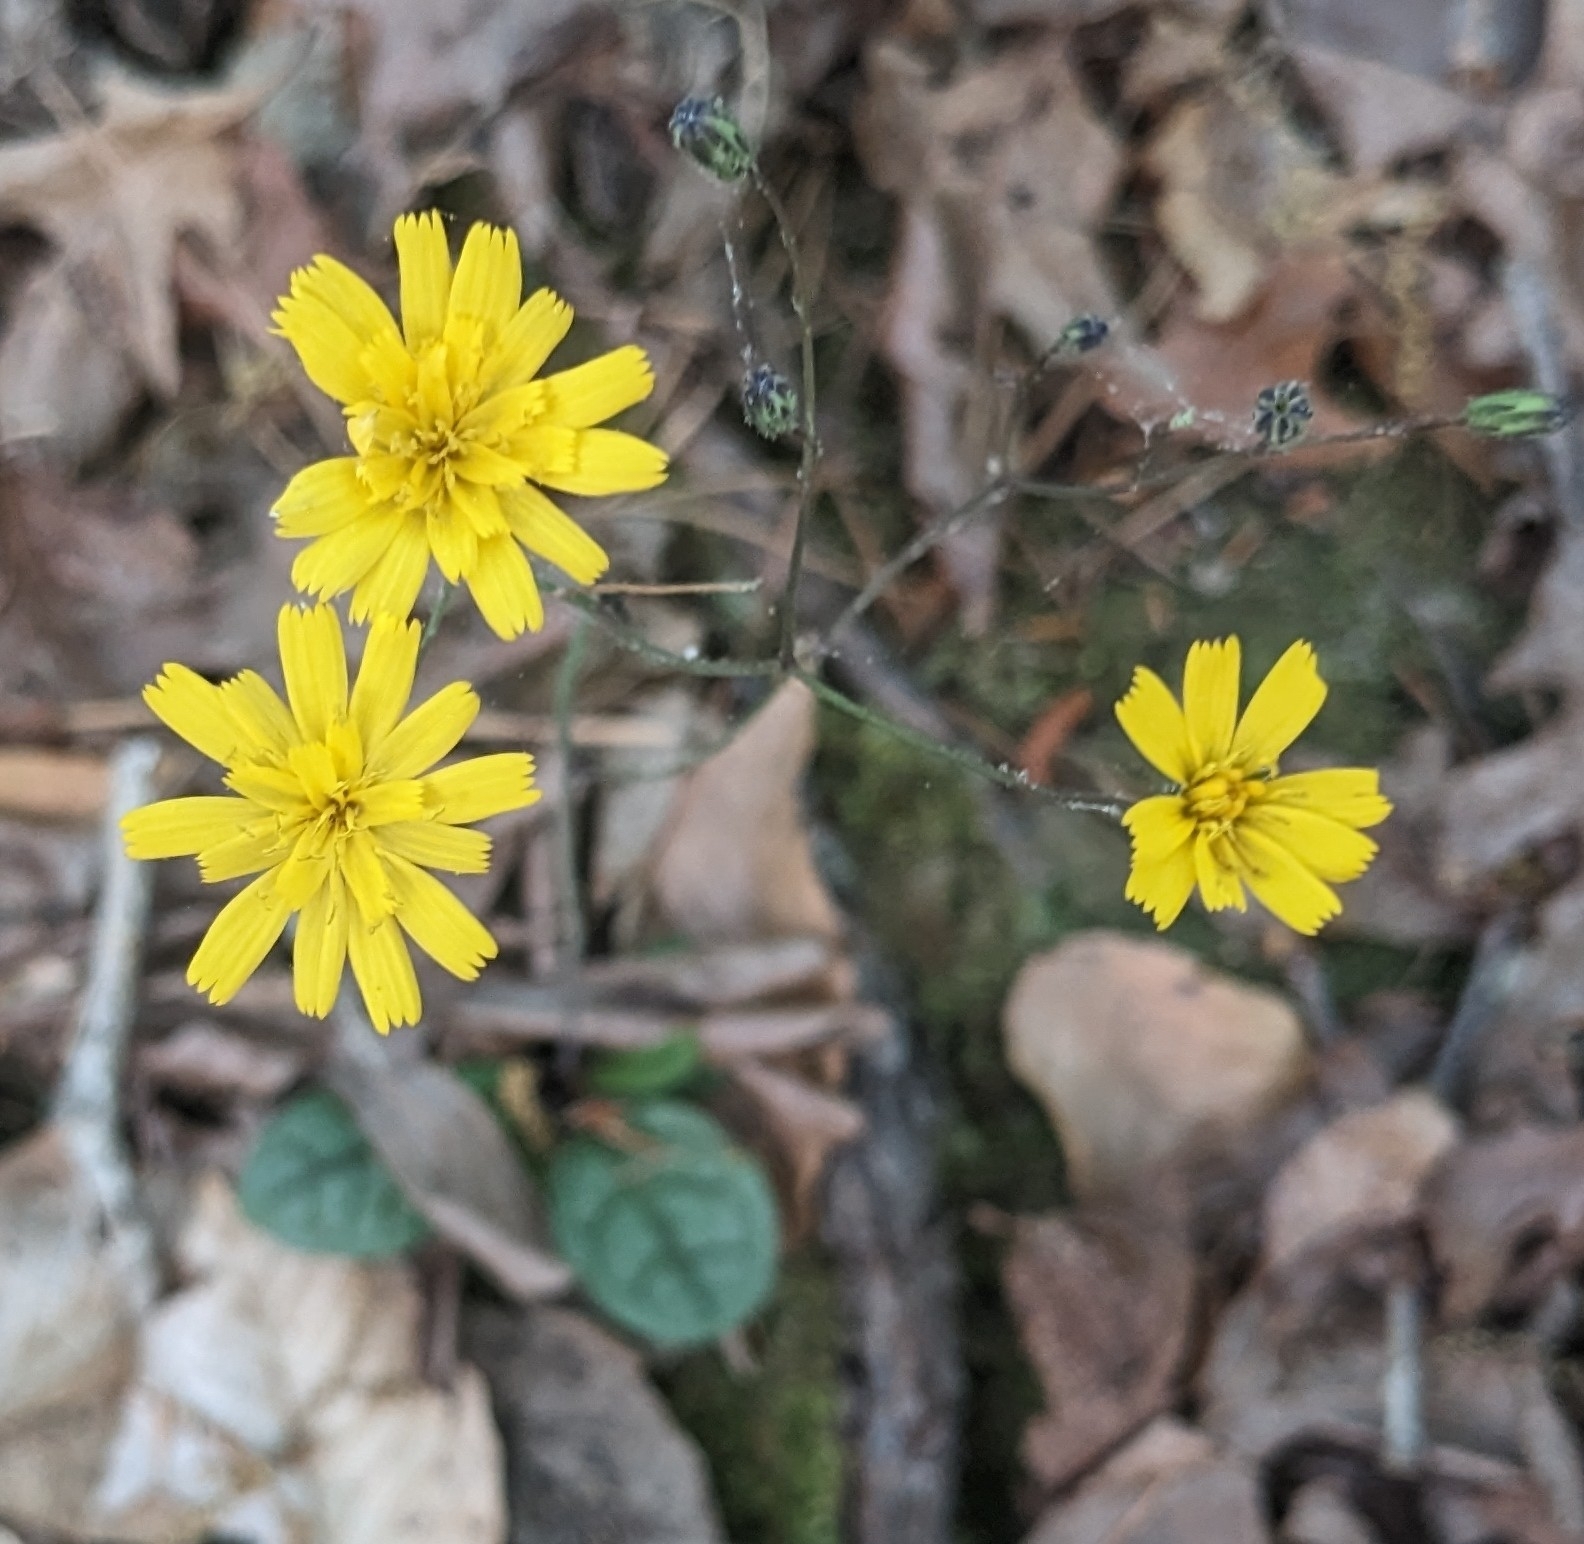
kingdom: Plantae
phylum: Tracheophyta
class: Magnoliopsida
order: Asterales
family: Asteraceae
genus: Hieracium
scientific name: Hieracium venosum
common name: Rattlesnake hawkweed
